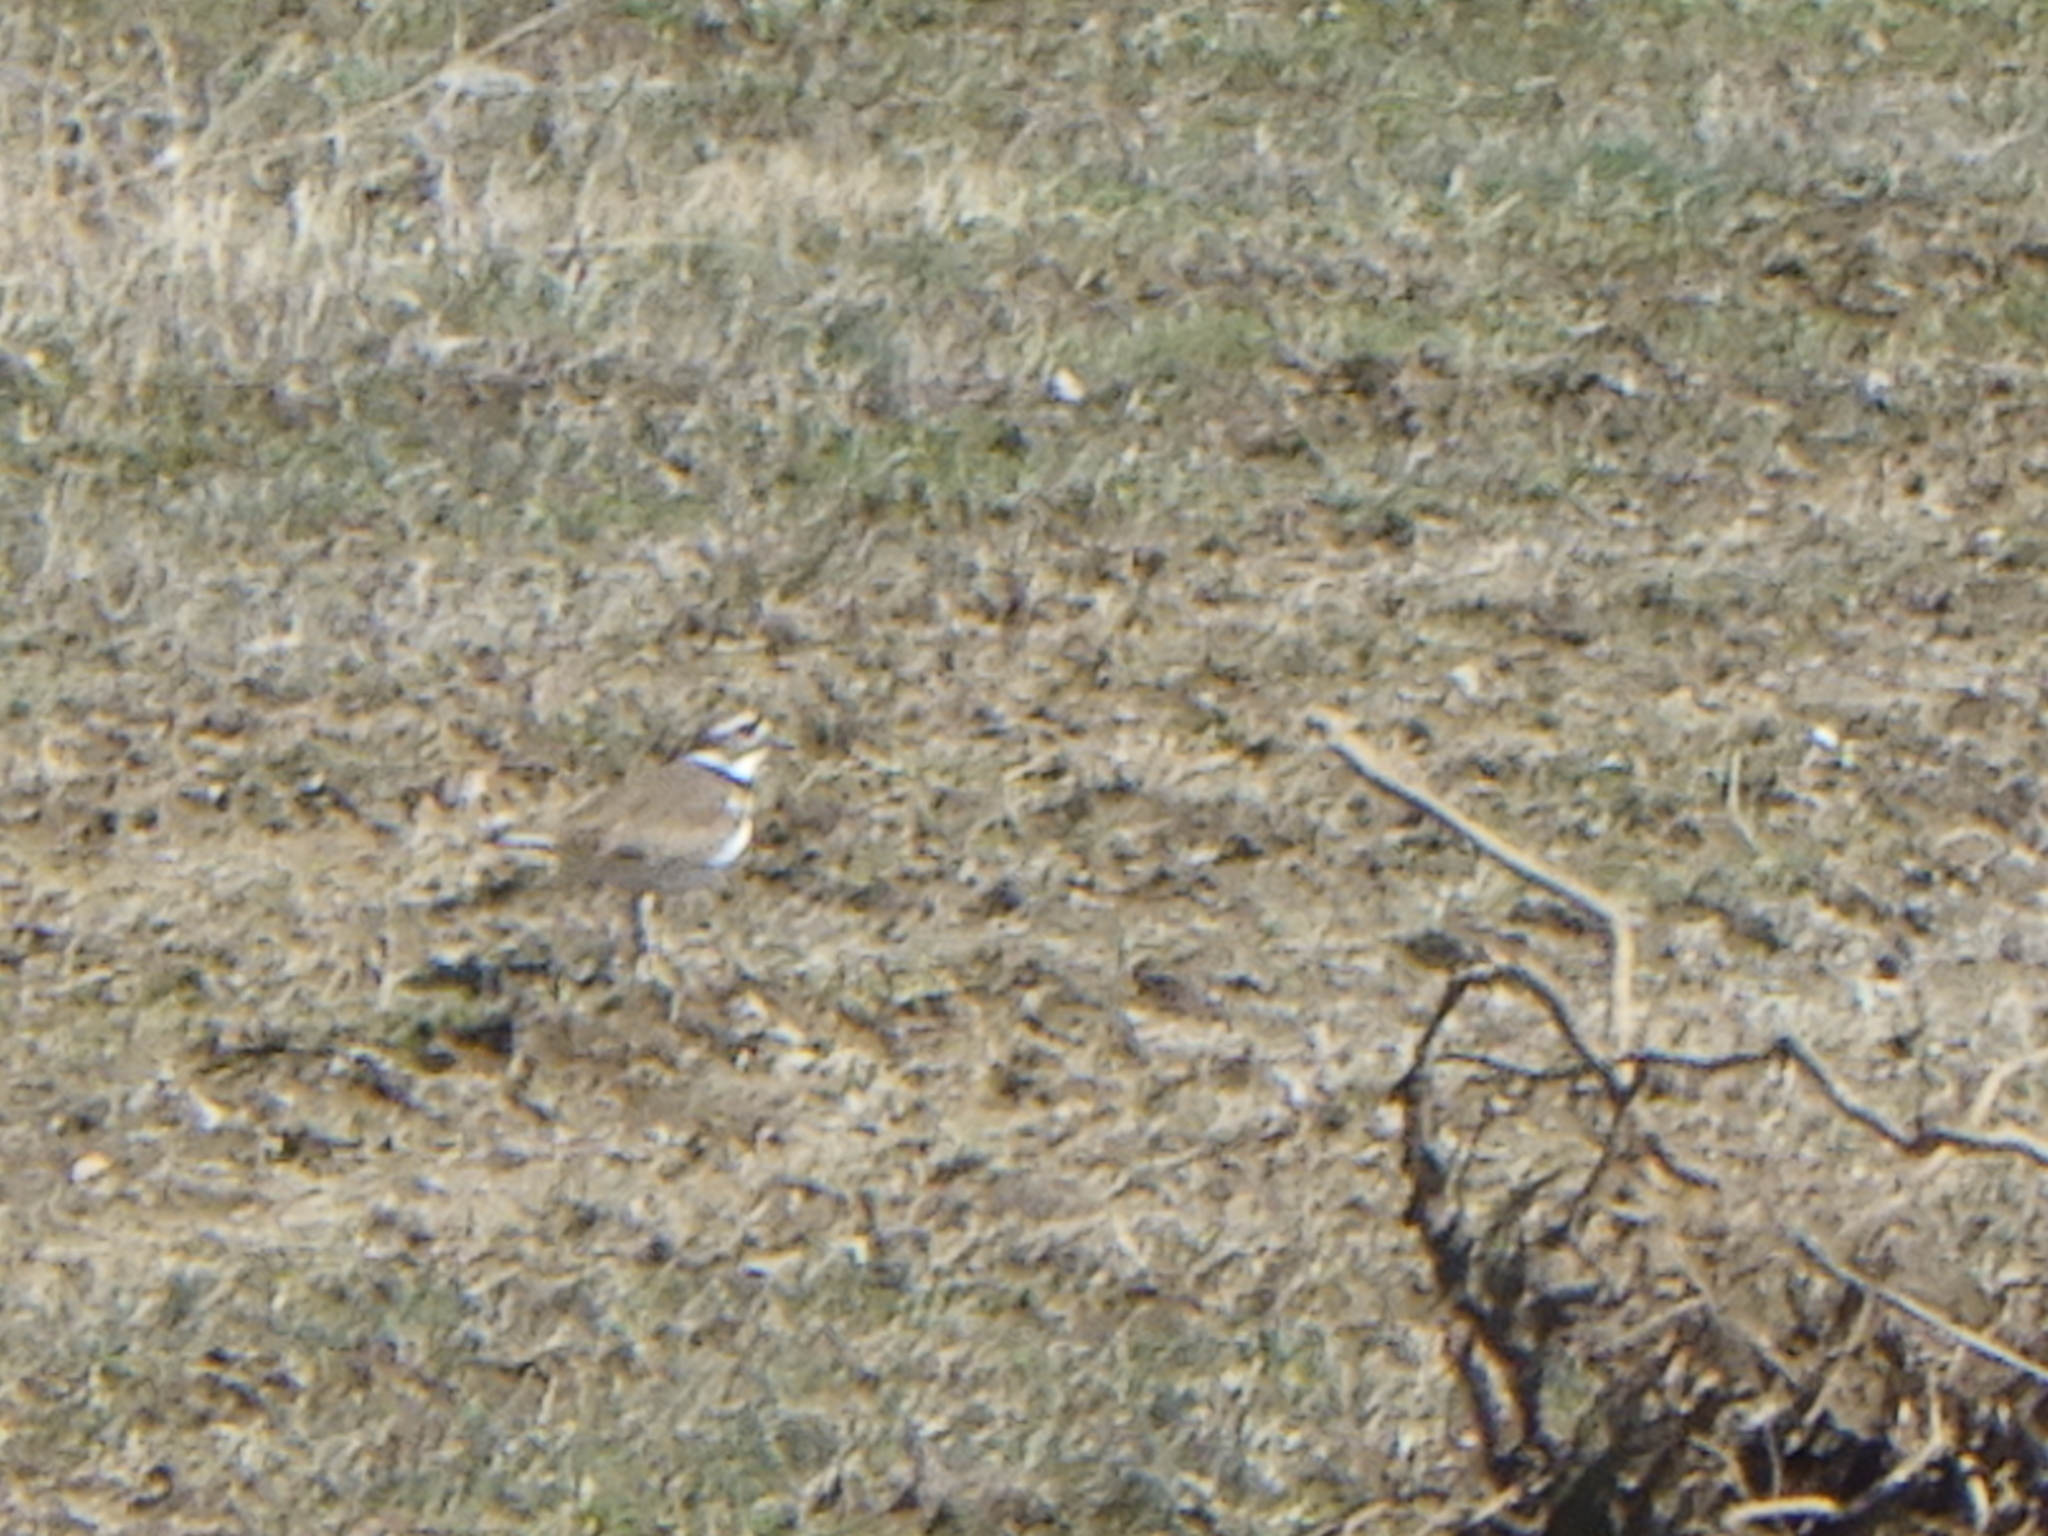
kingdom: Animalia
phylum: Chordata
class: Aves
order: Charadriiformes
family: Charadriidae
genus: Charadrius
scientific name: Charadrius vociferus
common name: Killdeer
